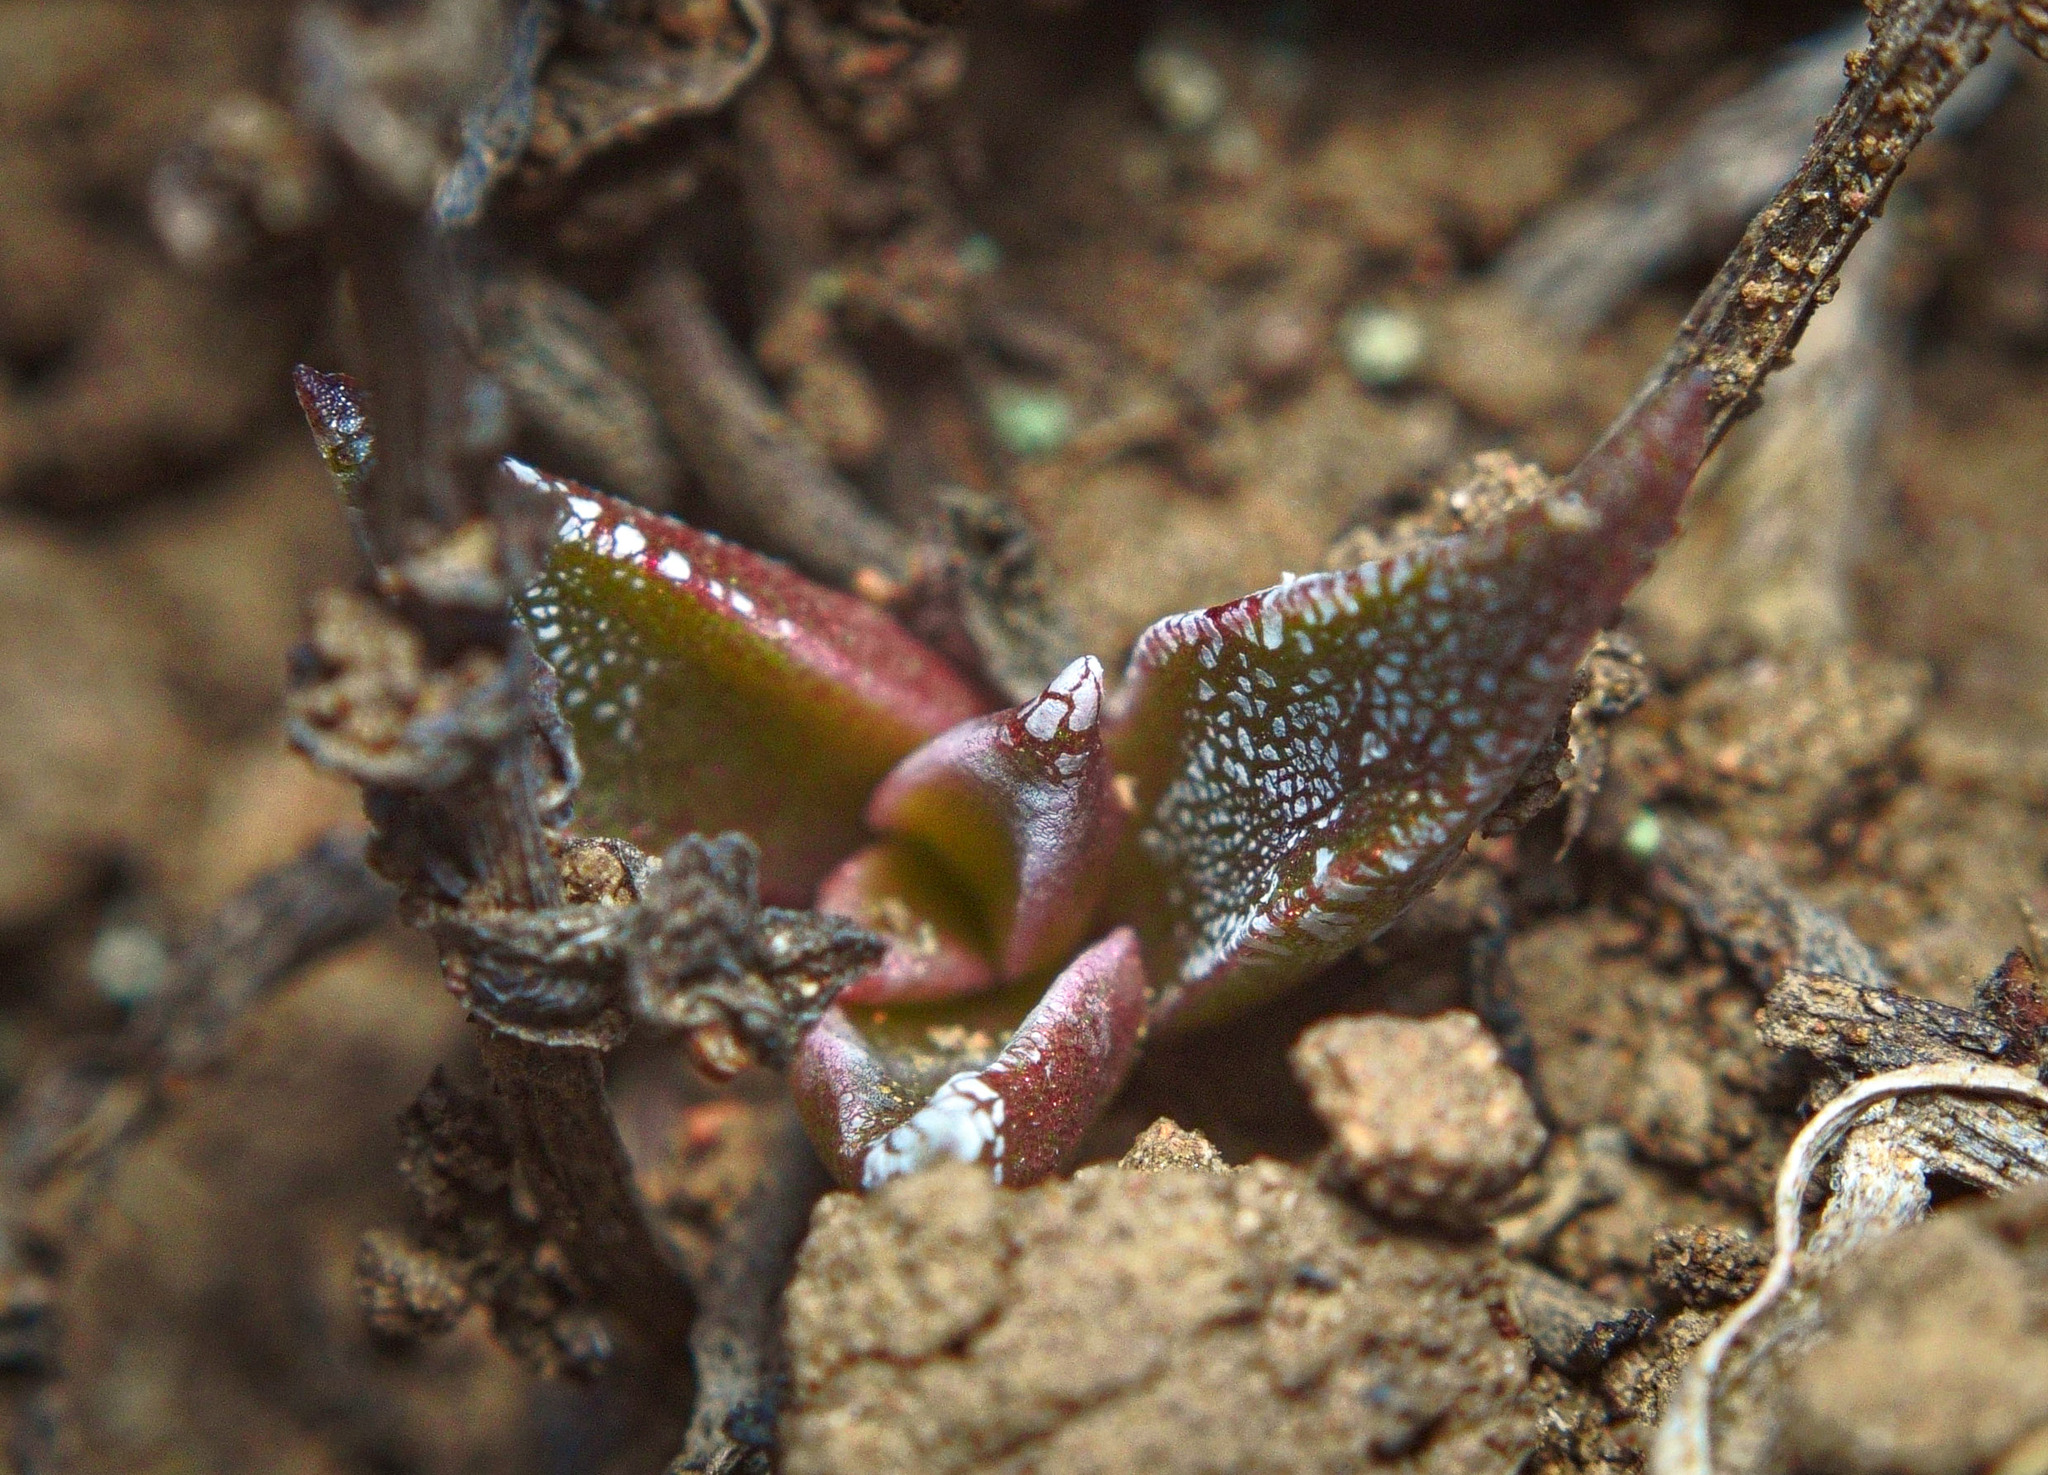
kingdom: Plantae
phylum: Tracheophyta
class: Magnoliopsida
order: Saxifragales
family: Crassulaceae
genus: Dudleya
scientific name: Dudleya parva
